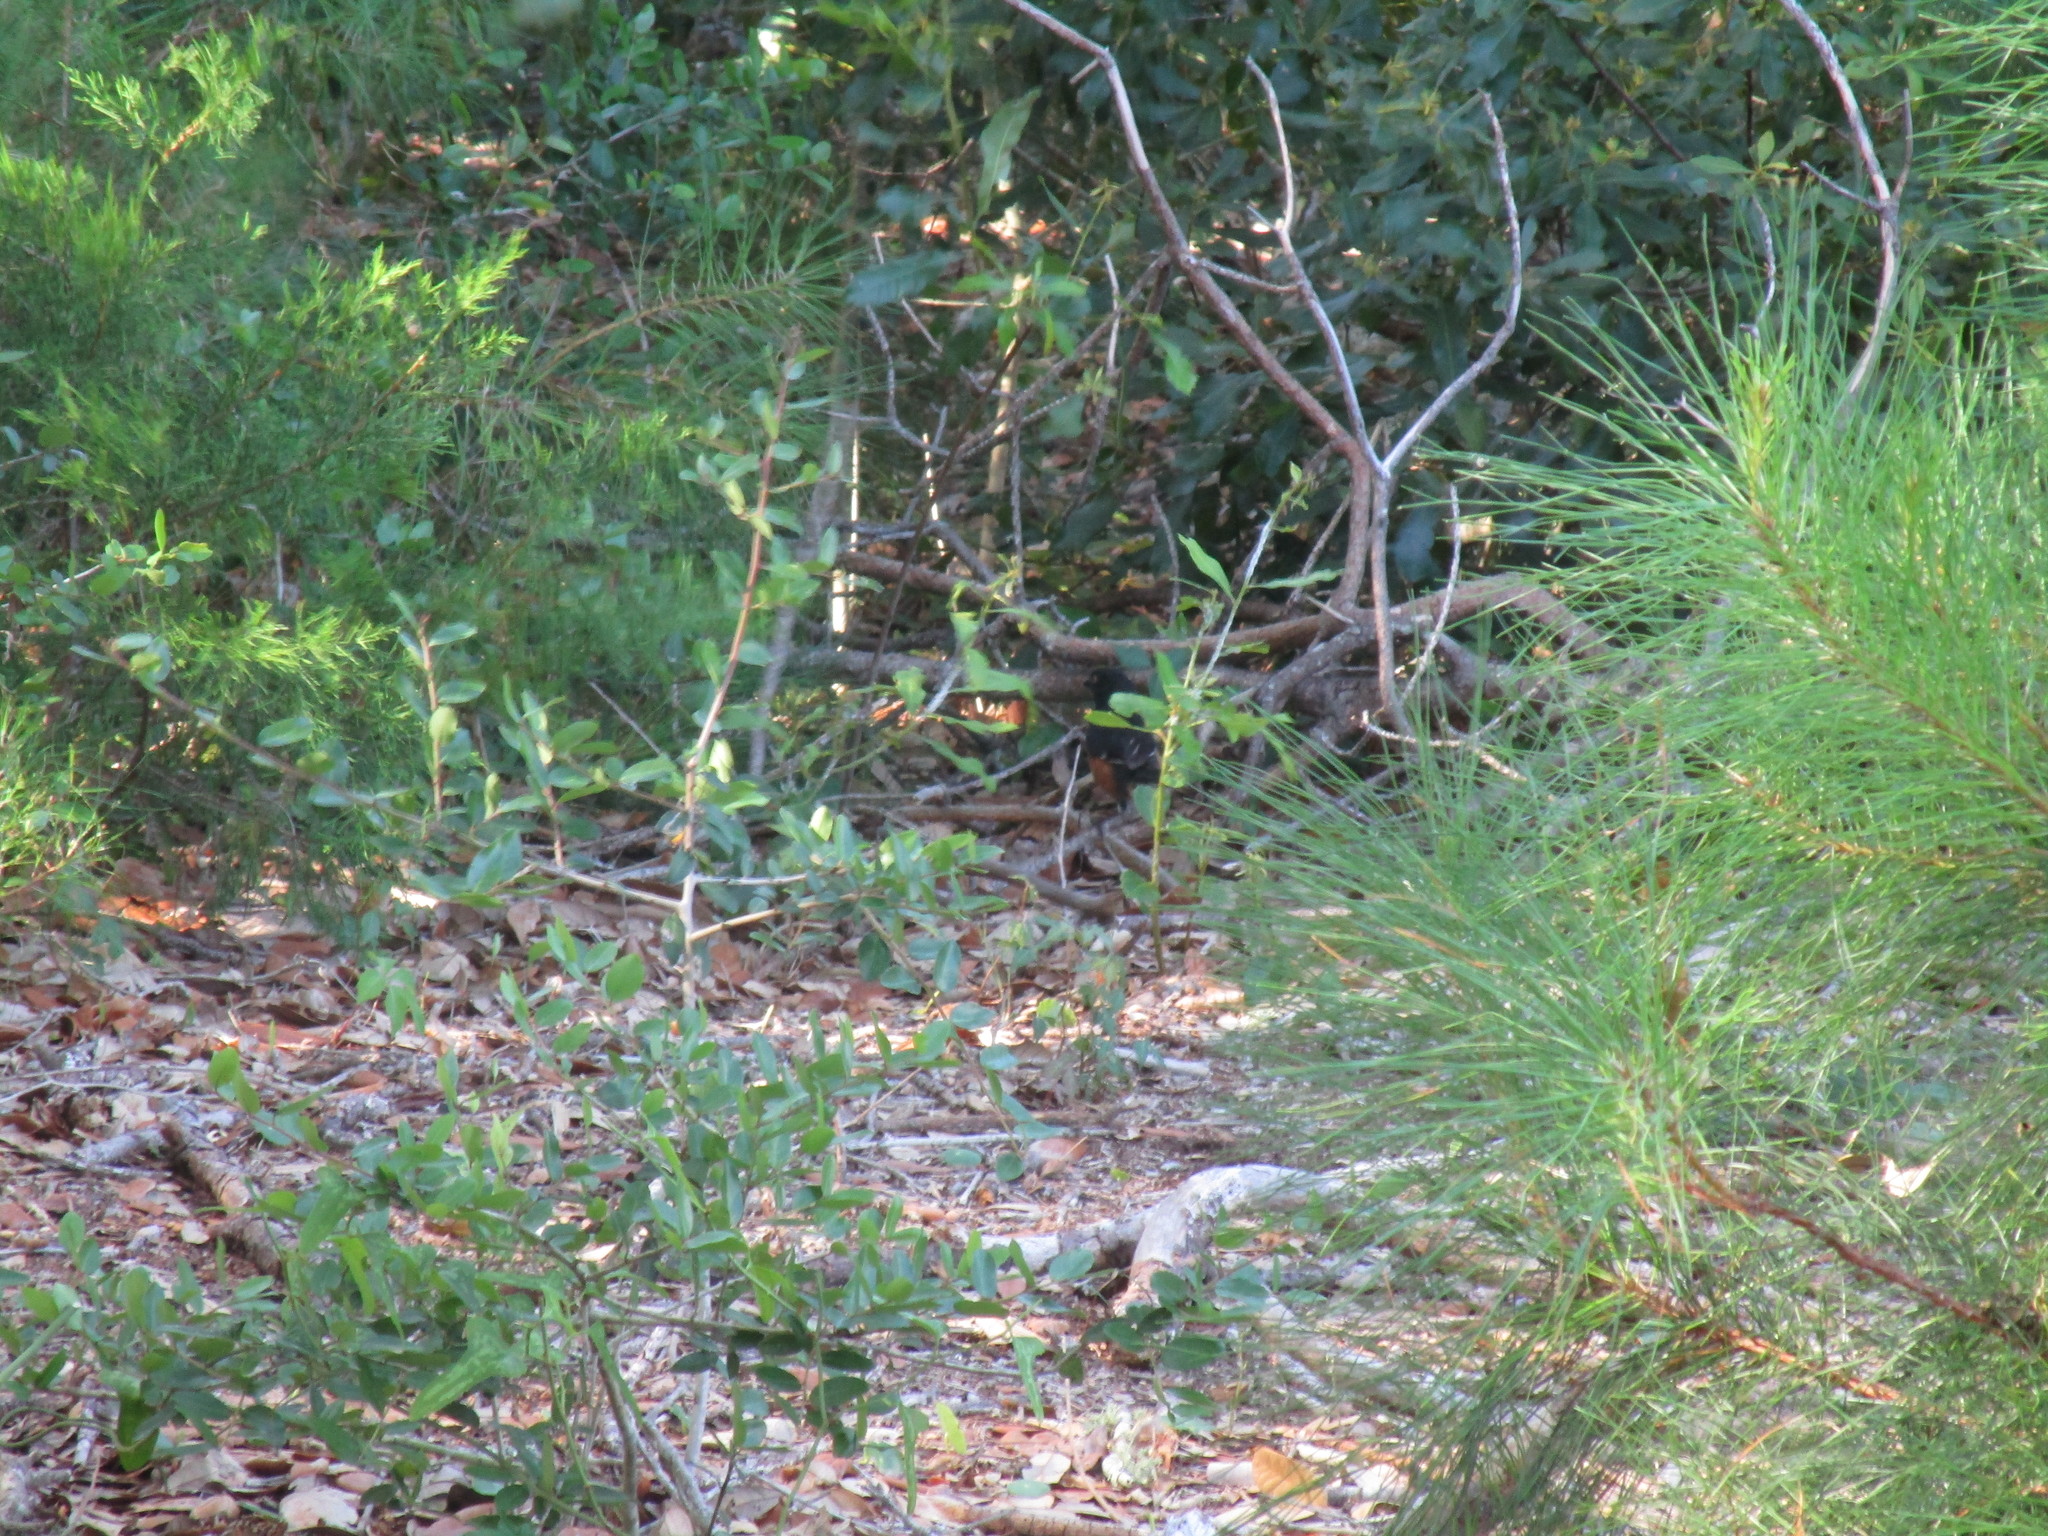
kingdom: Animalia
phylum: Chordata
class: Aves
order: Passeriformes
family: Passerellidae
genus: Pipilo
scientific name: Pipilo erythrophthalmus
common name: Eastern towhee
